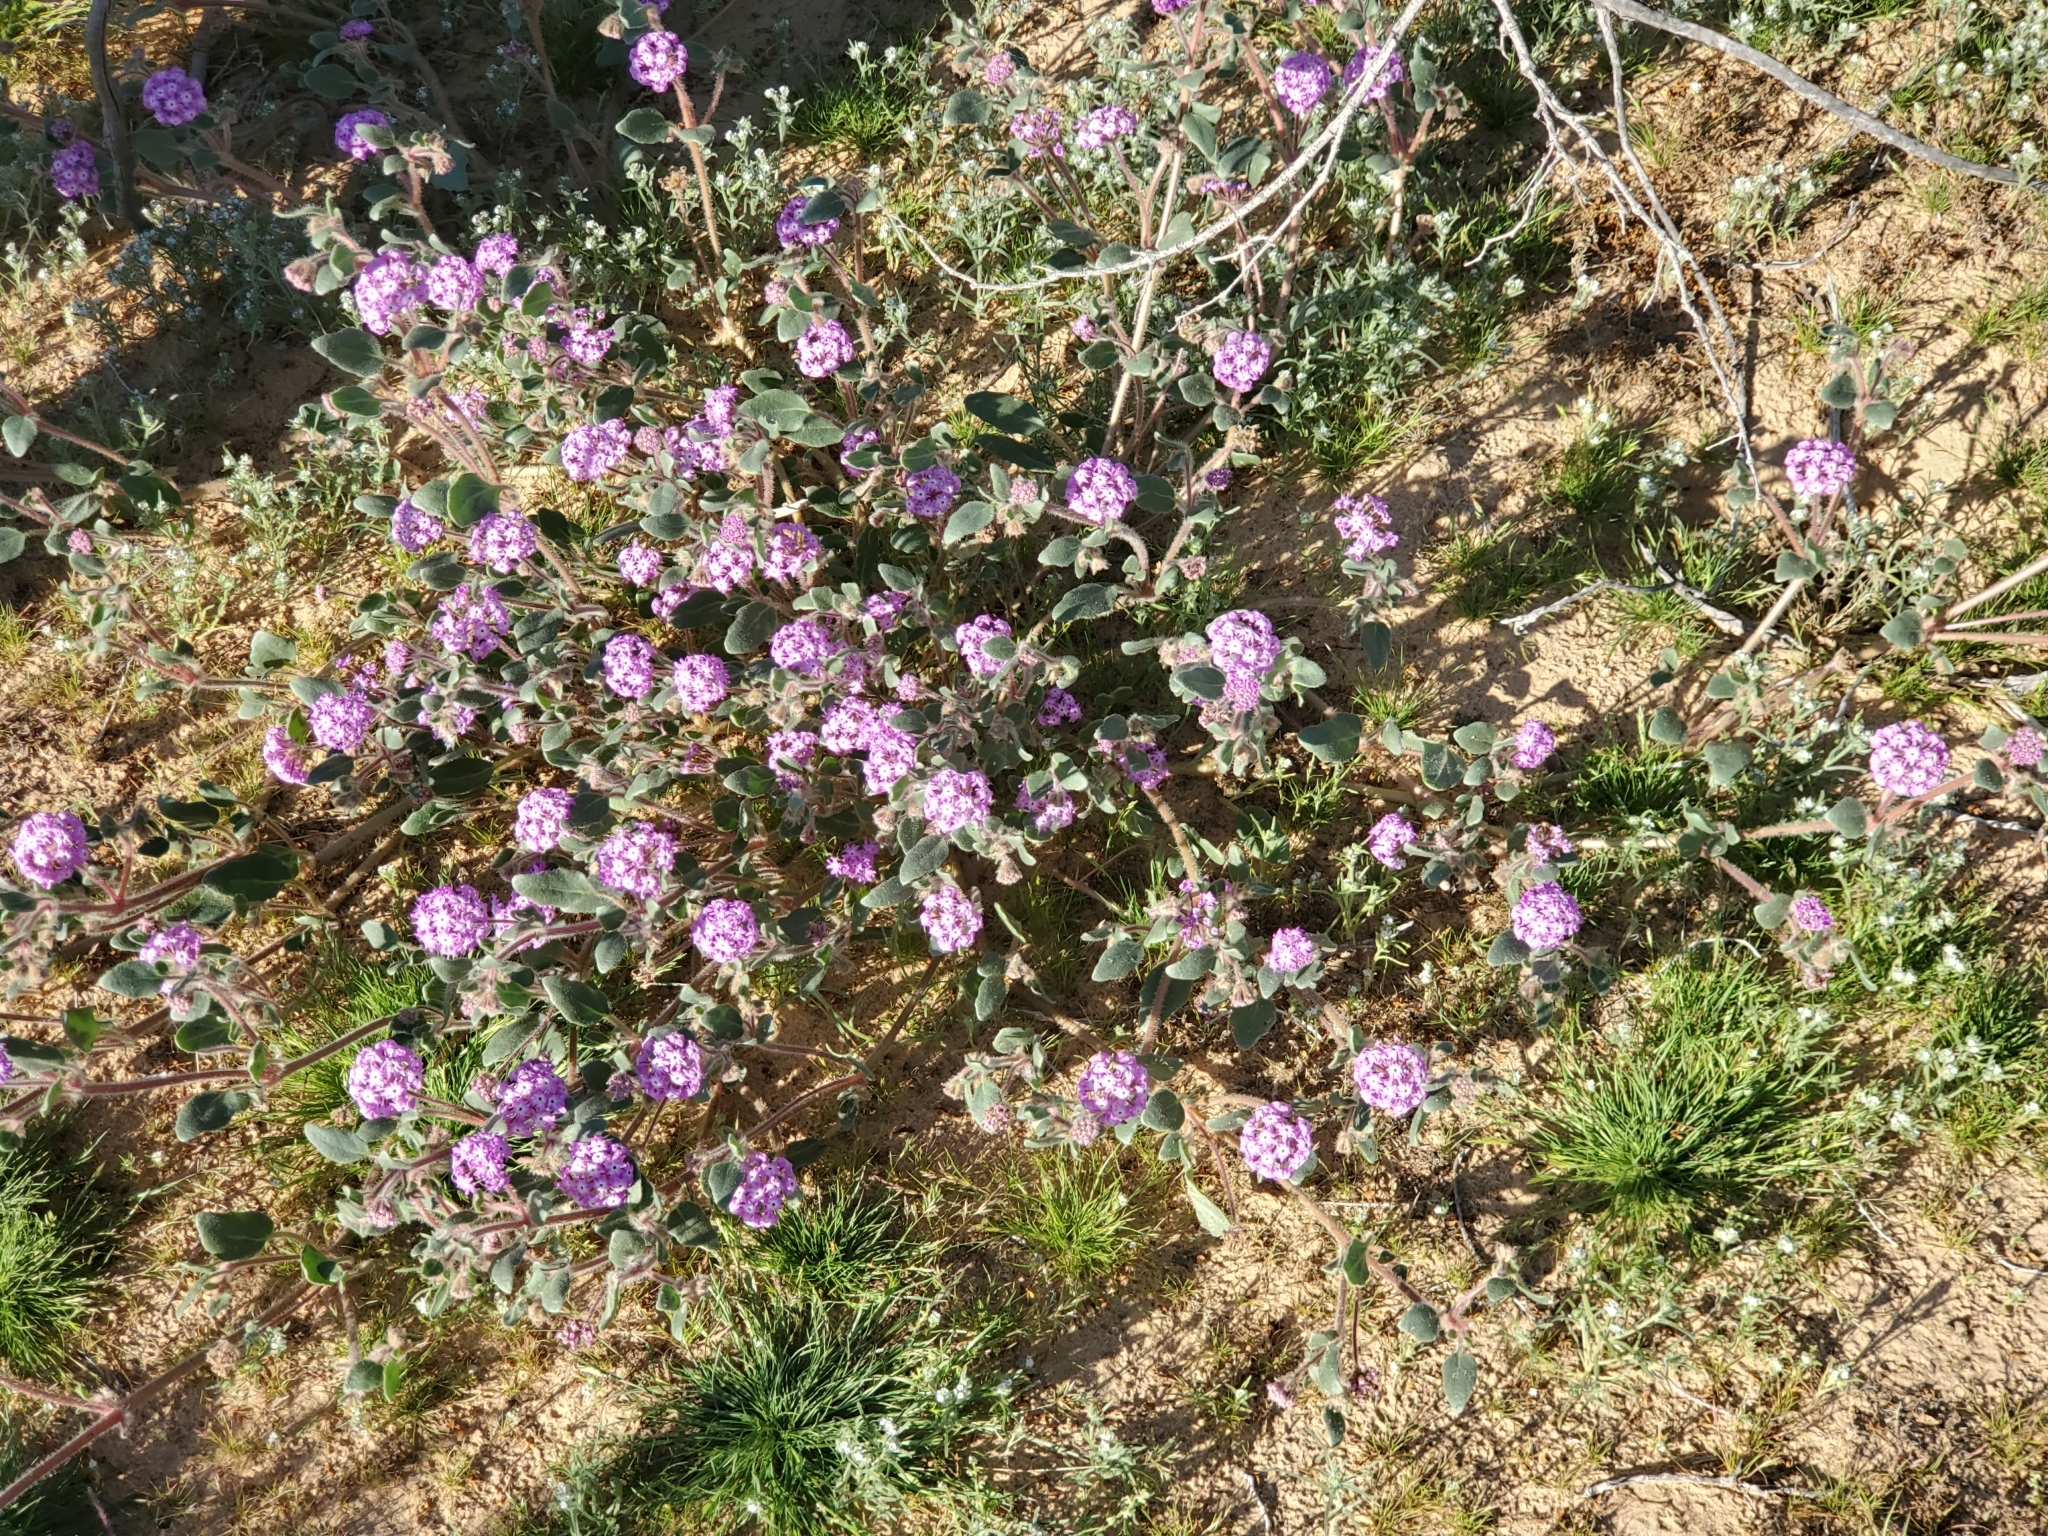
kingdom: Plantae
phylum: Tracheophyta
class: Magnoliopsida
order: Caryophyllales
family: Nyctaginaceae
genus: Abronia
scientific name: Abronia villosa
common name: Desert sand-verbena
